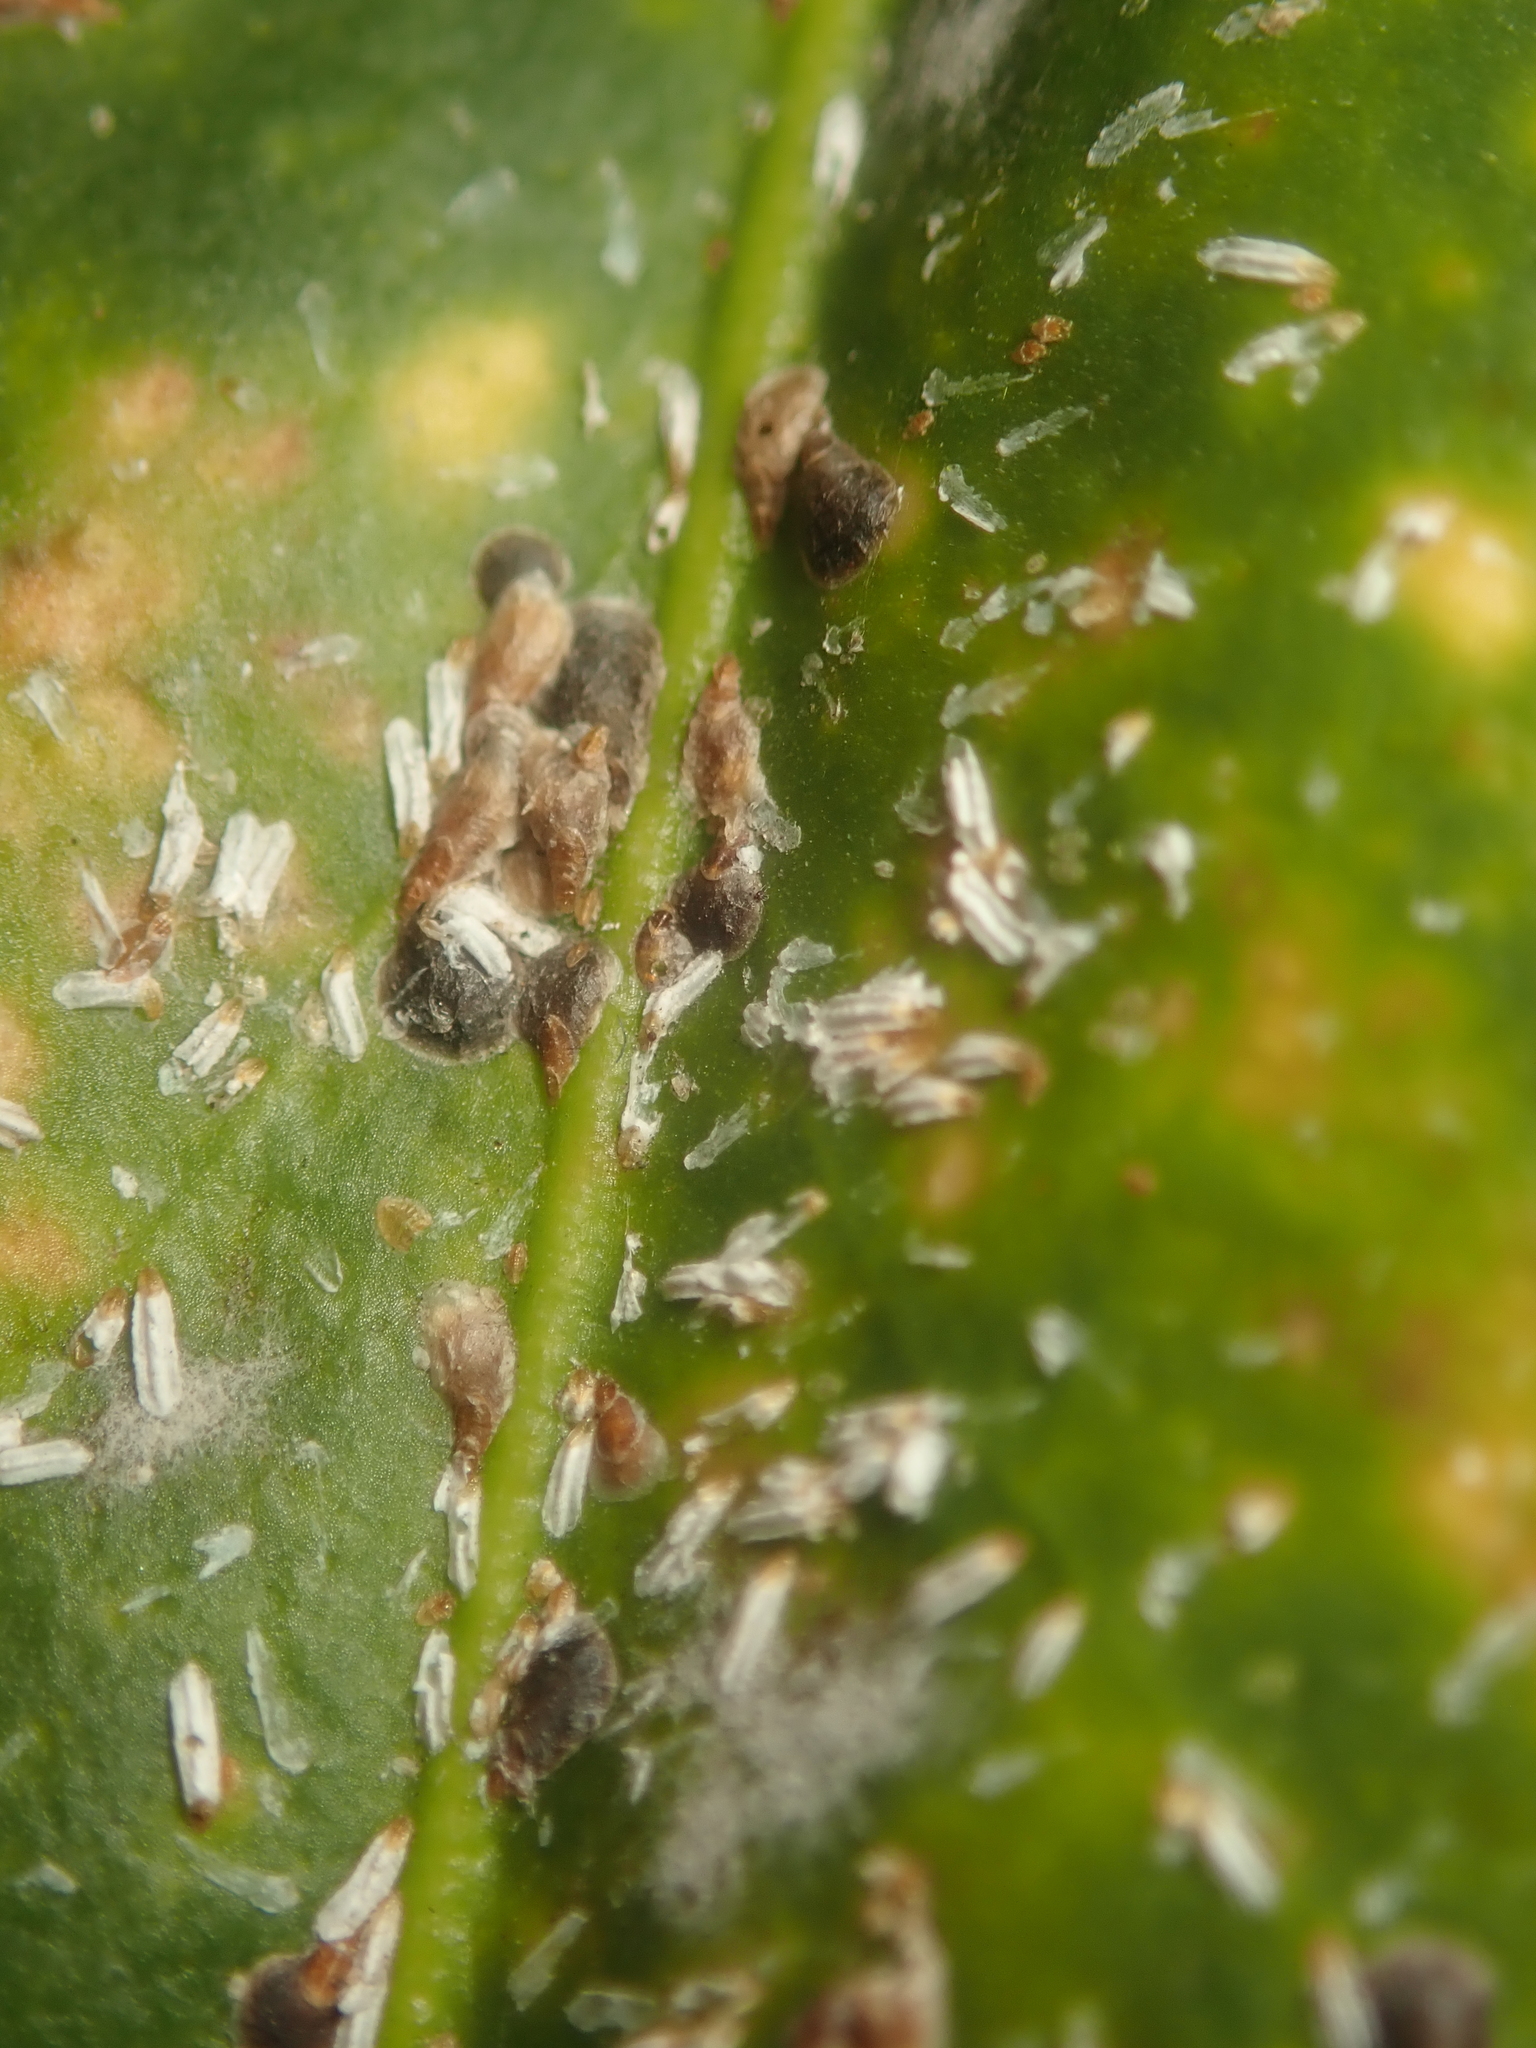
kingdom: Animalia
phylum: Arthropoda
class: Insecta
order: Hemiptera
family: Diaspididae
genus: Unaspis
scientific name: Unaspis euonymi
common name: Euonymus scale
